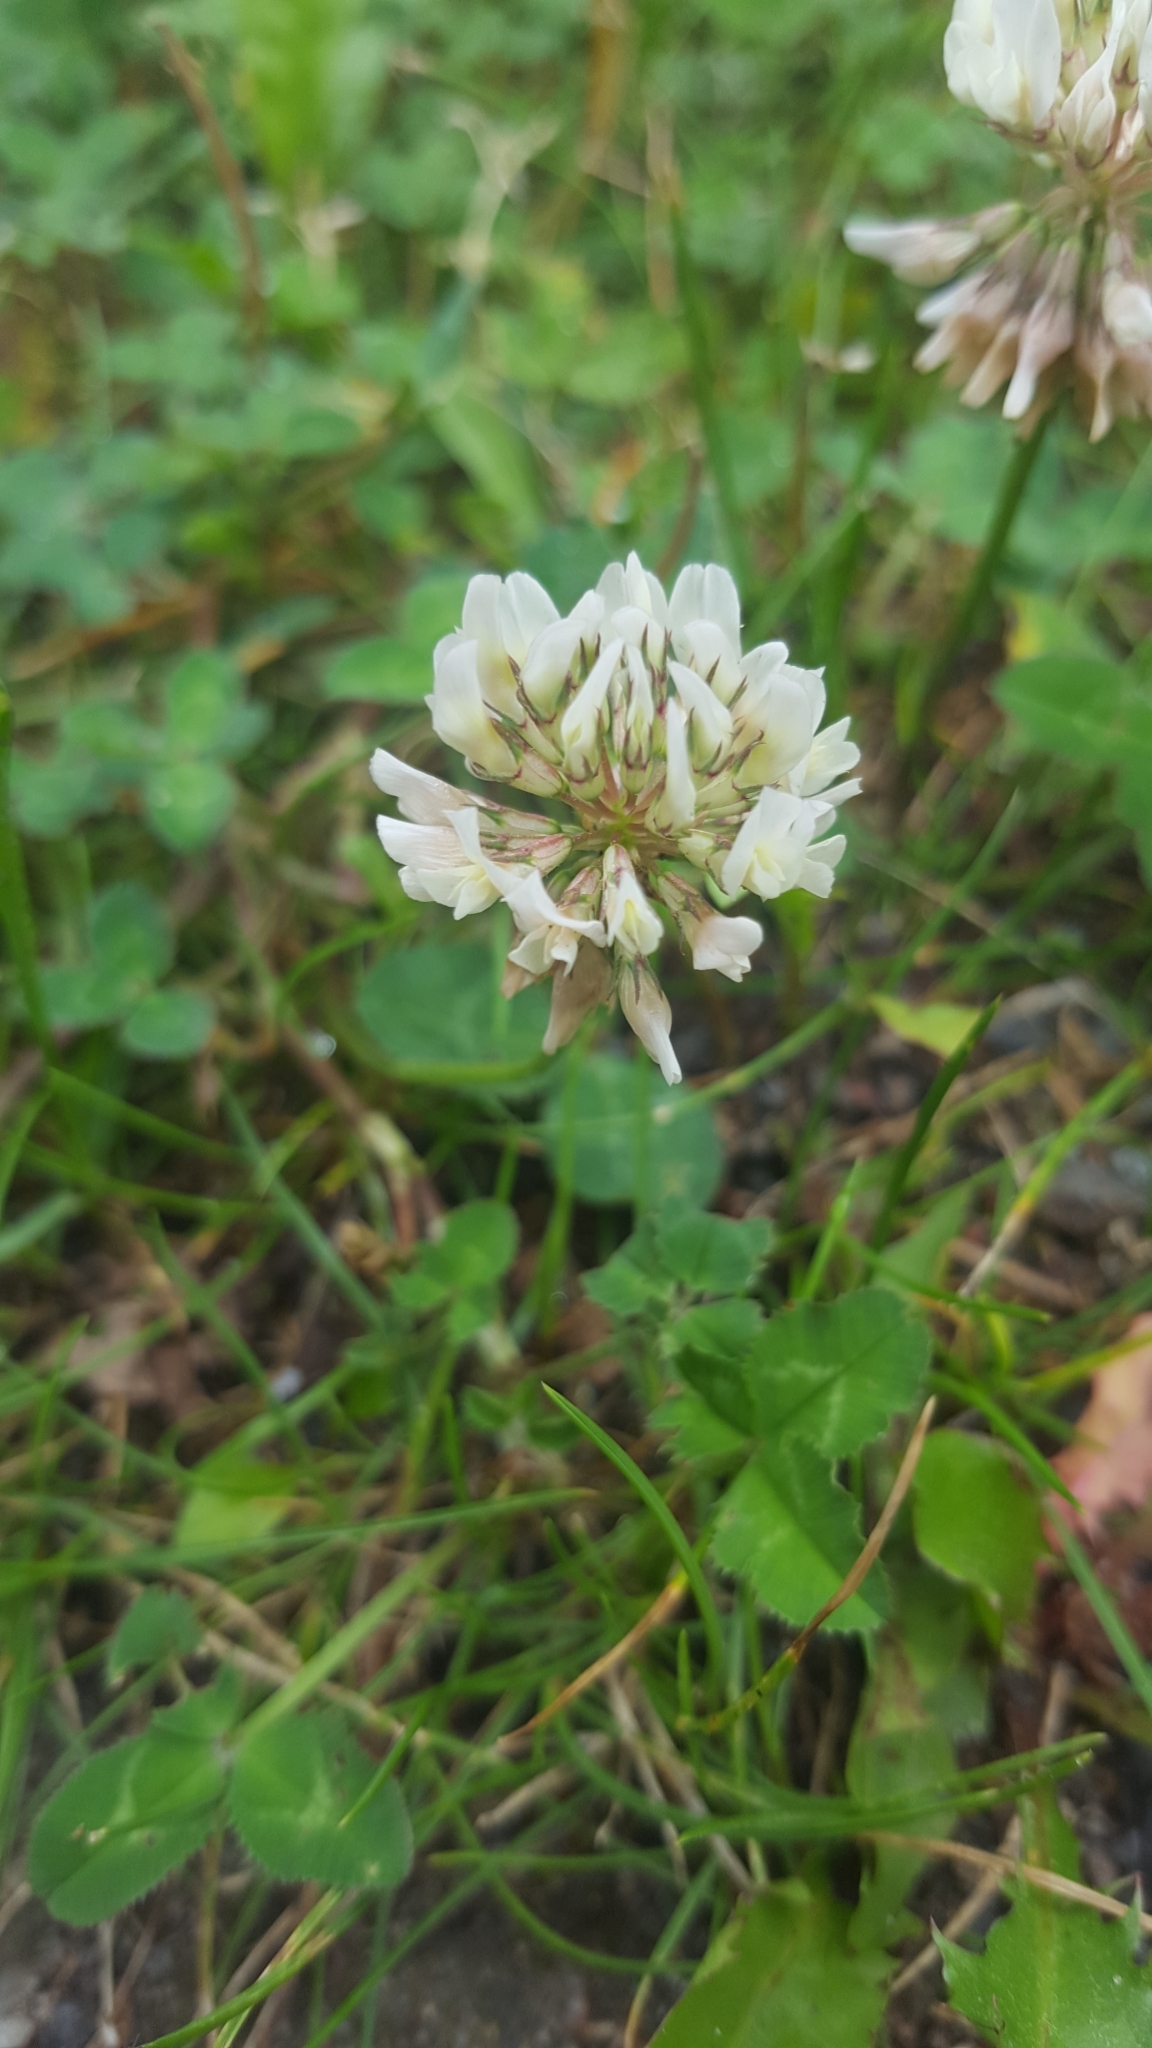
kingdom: Plantae
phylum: Tracheophyta
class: Magnoliopsida
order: Fabales
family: Fabaceae
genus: Trifolium
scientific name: Trifolium repens
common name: White clover
